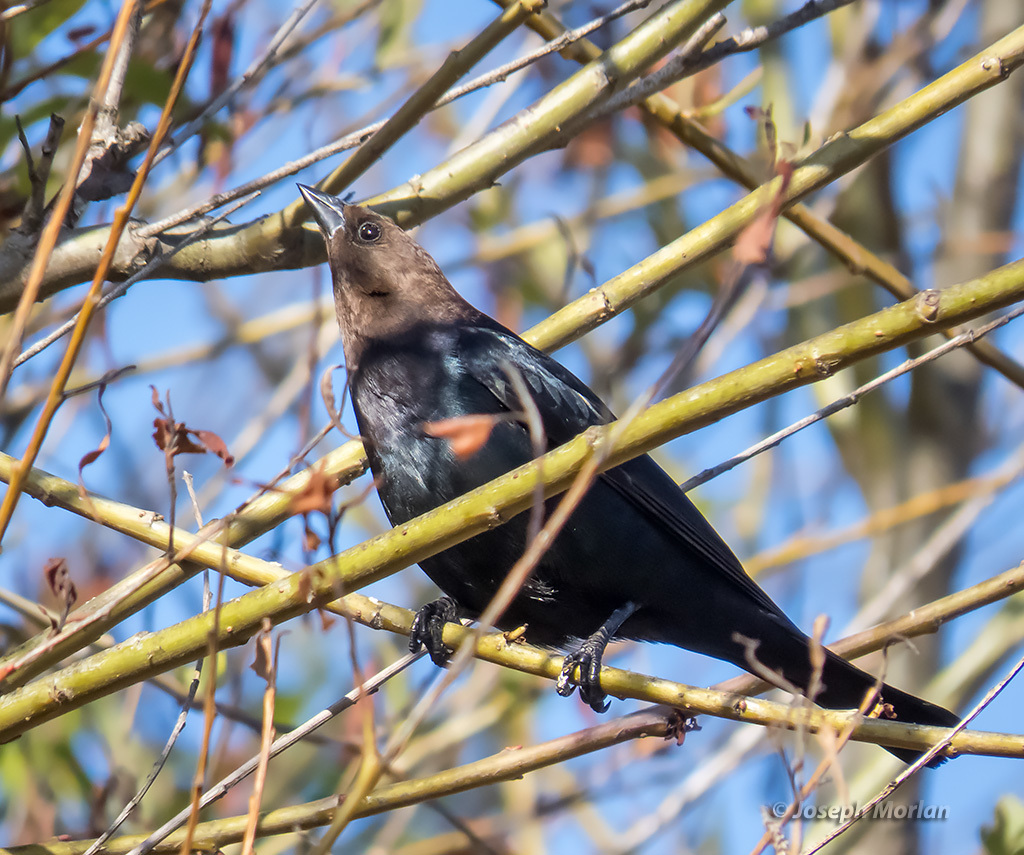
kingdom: Animalia
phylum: Chordata
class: Aves
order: Passeriformes
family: Icteridae
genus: Molothrus
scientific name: Molothrus ater
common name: Brown-headed cowbird
